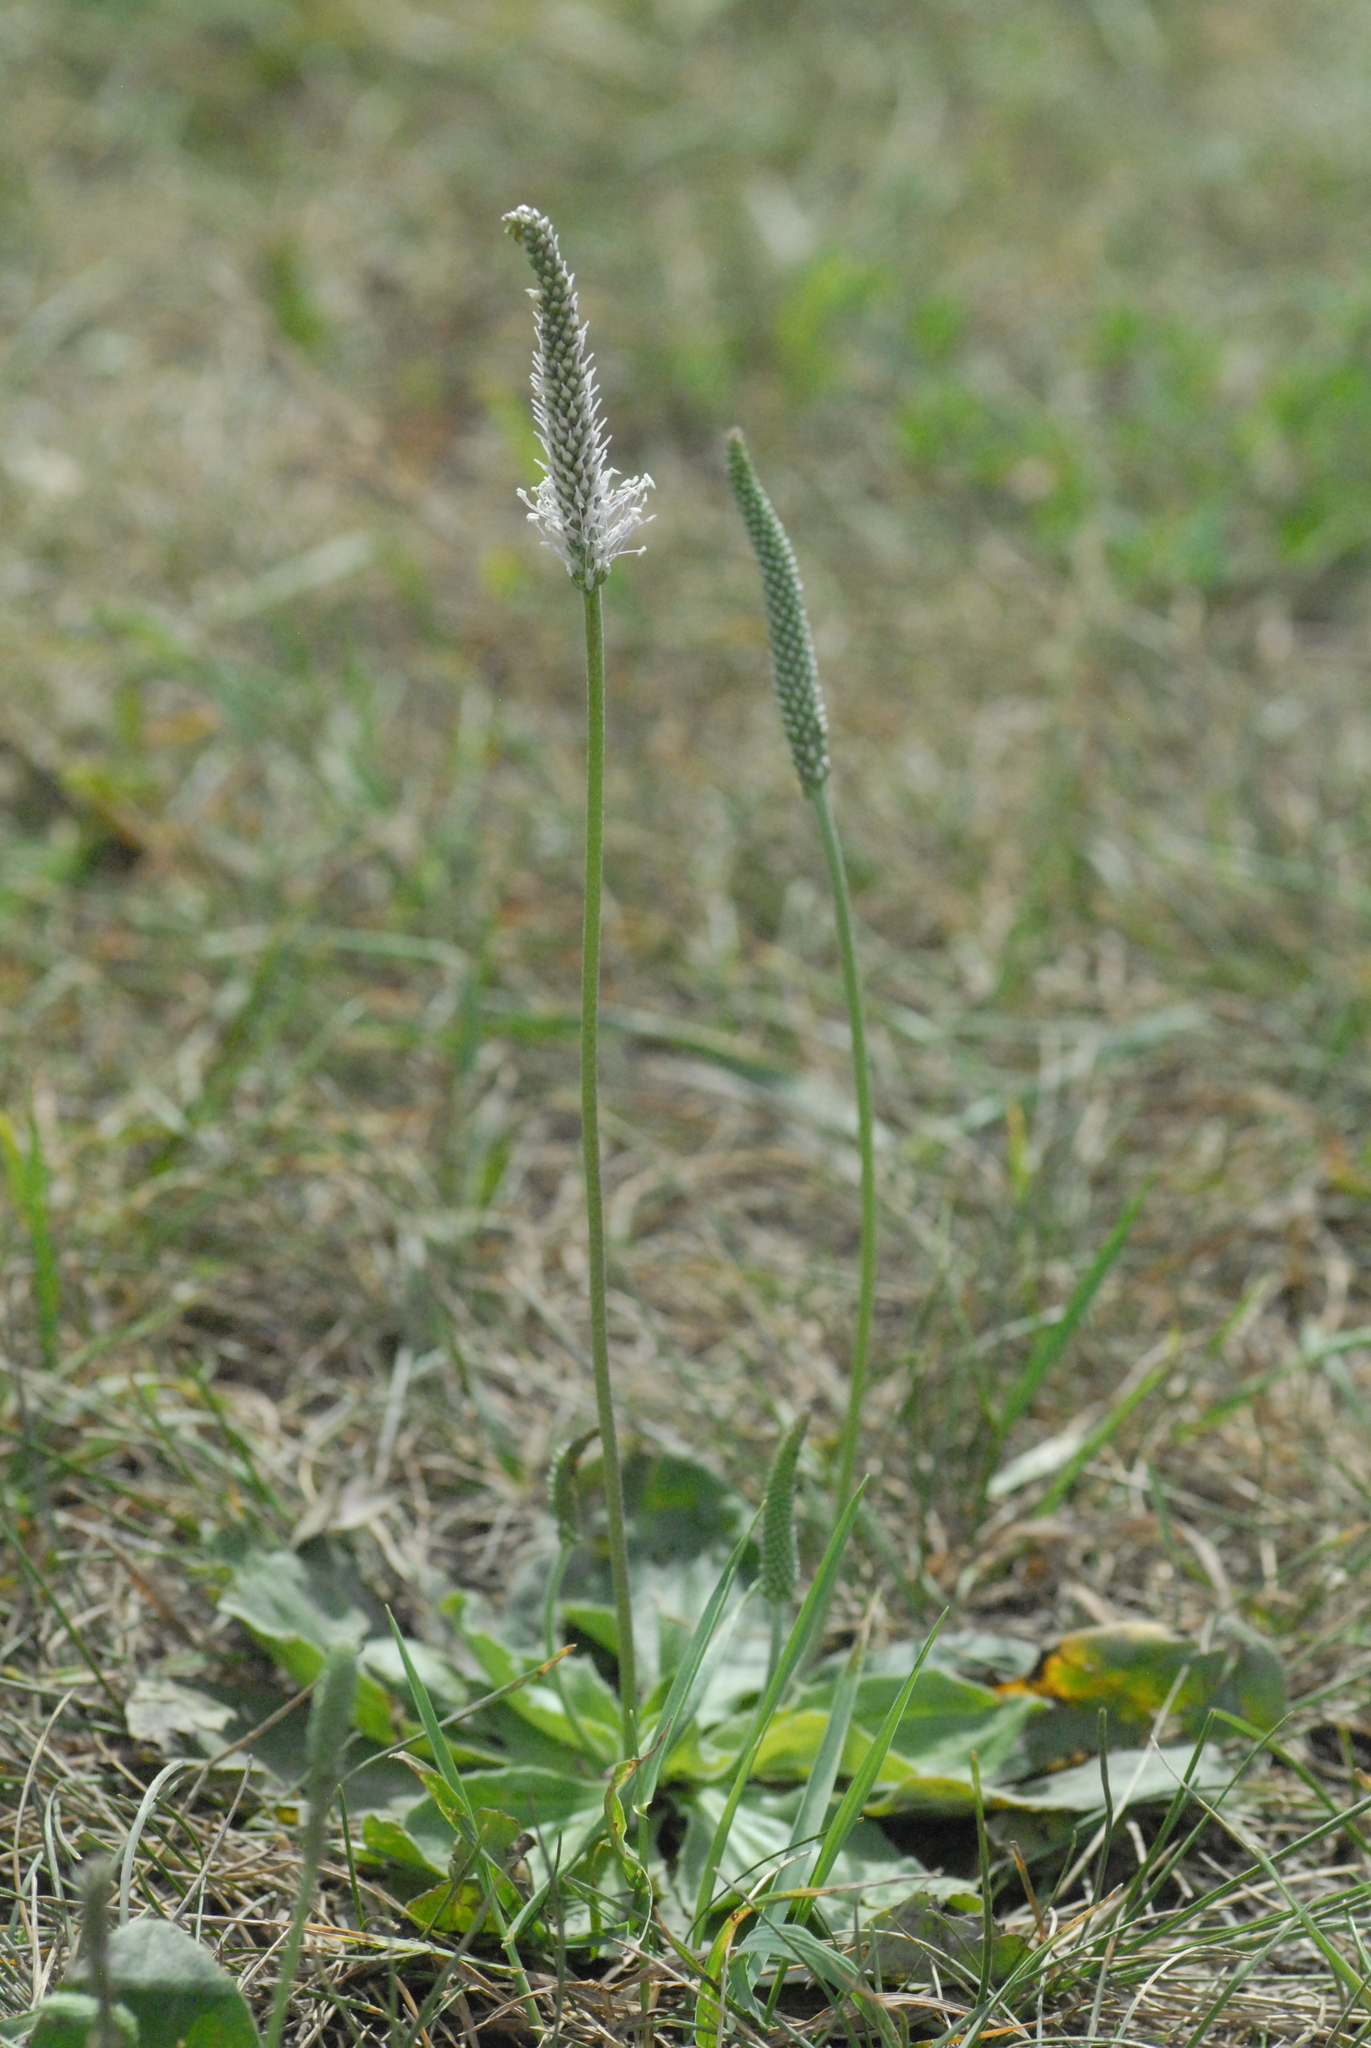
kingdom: Plantae
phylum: Tracheophyta
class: Magnoliopsida
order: Lamiales
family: Plantaginaceae
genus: Plantago
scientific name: Plantago media
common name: Hoary plantain
